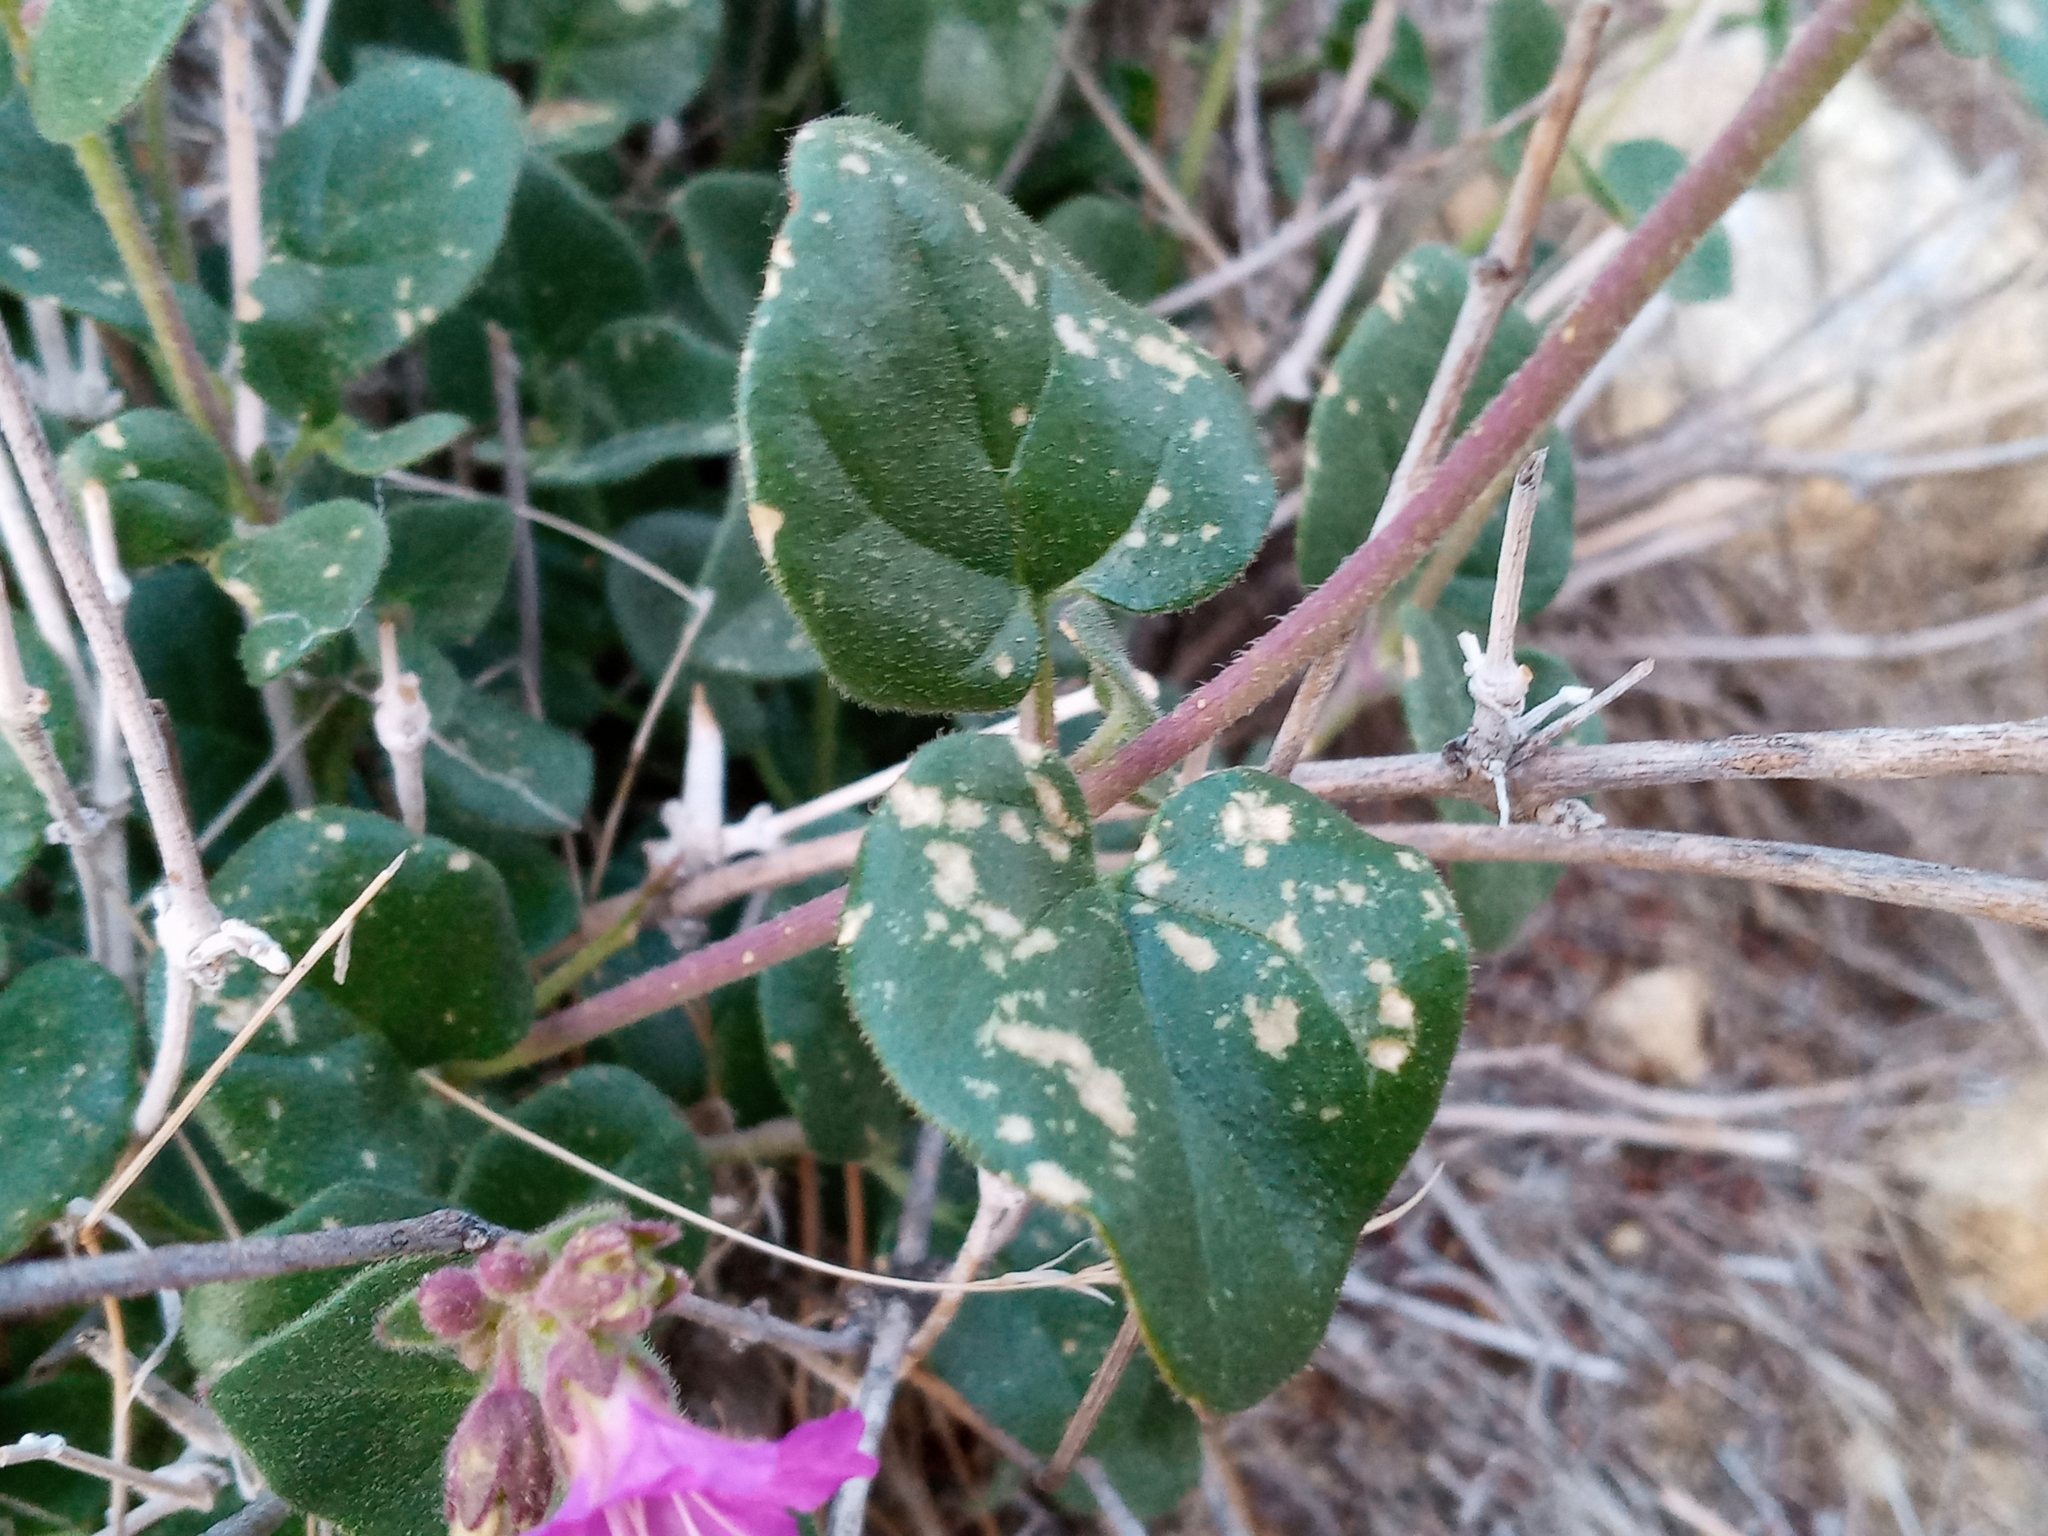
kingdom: Plantae
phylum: Tracheophyta
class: Magnoliopsida
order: Caryophyllales
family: Nyctaginaceae
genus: Mirabilis
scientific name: Mirabilis laevis
